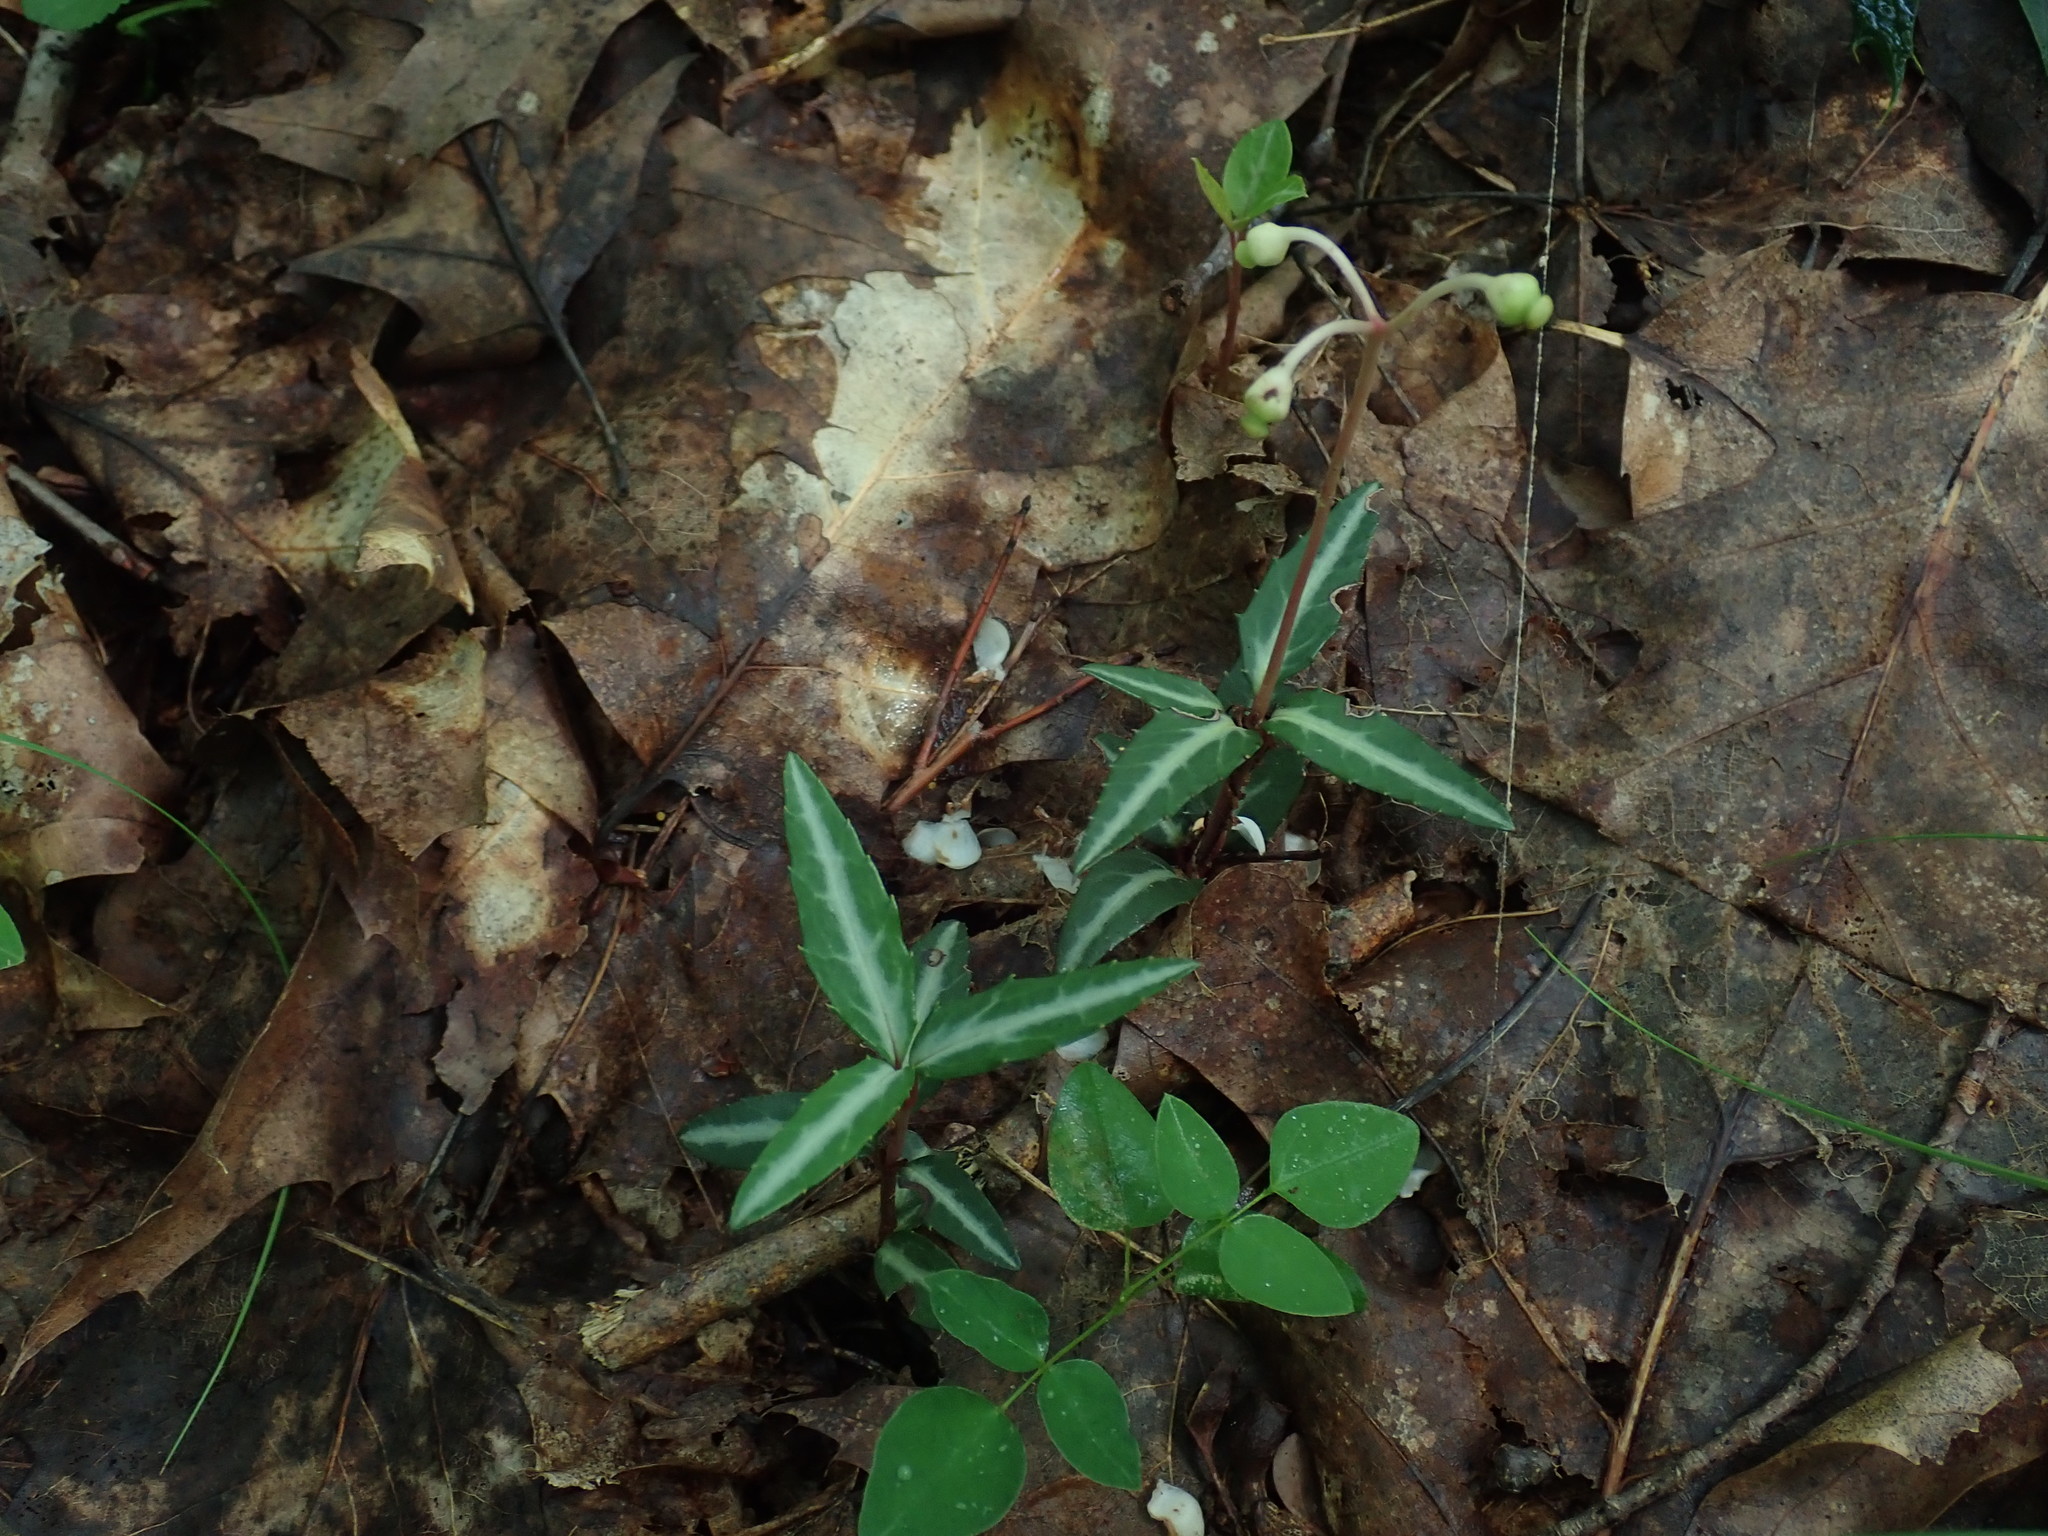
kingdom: Plantae
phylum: Tracheophyta
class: Magnoliopsida
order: Ericales
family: Ericaceae
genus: Chimaphila
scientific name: Chimaphila maculata
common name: Spotted pipsissewa
